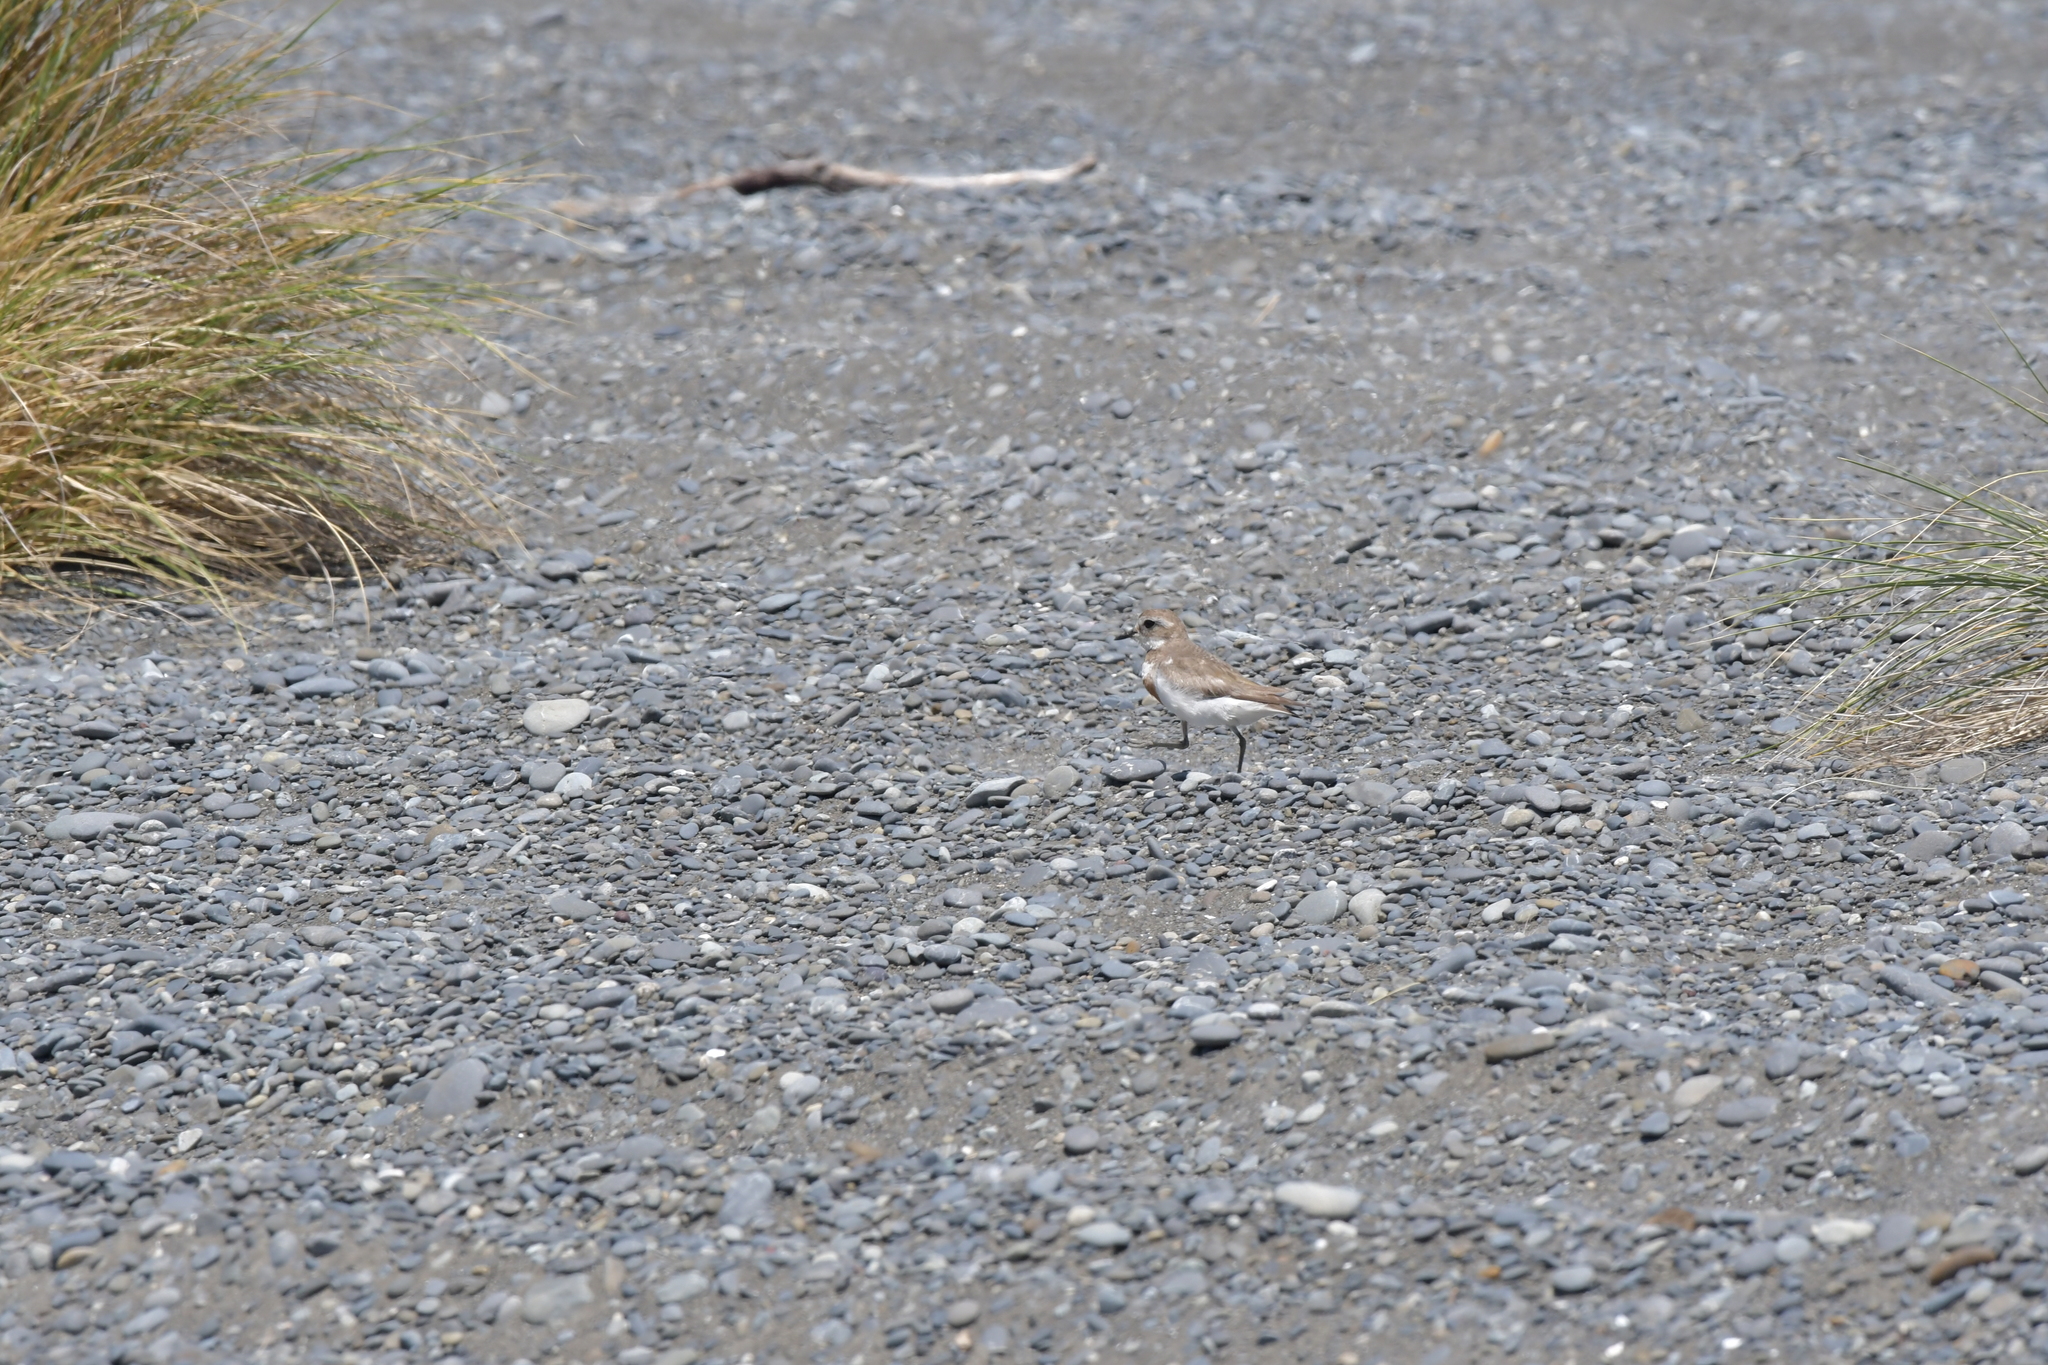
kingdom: Animalia
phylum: Chordata
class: Aves
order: Charadriiformes
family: Charadriidae
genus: Anarhynchus
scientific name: Anarhynchus
